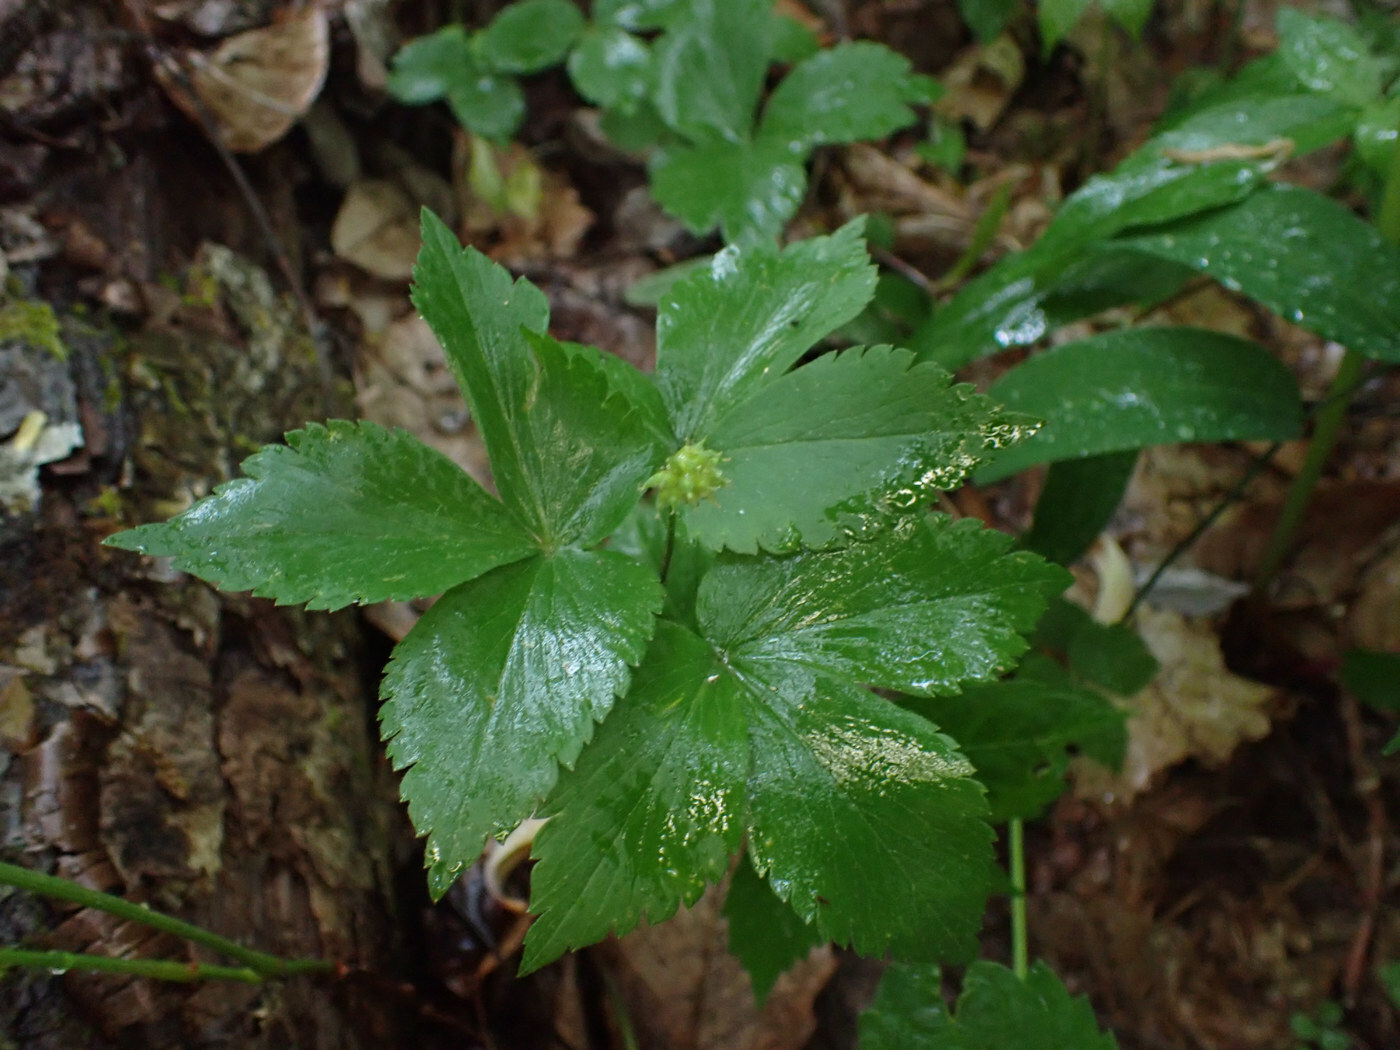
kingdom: Plantae
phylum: Tracheophyta
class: Magnoliopsida
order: Ranunculales
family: Ranunculaceae
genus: Anemone
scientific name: Anemone lancifolia
